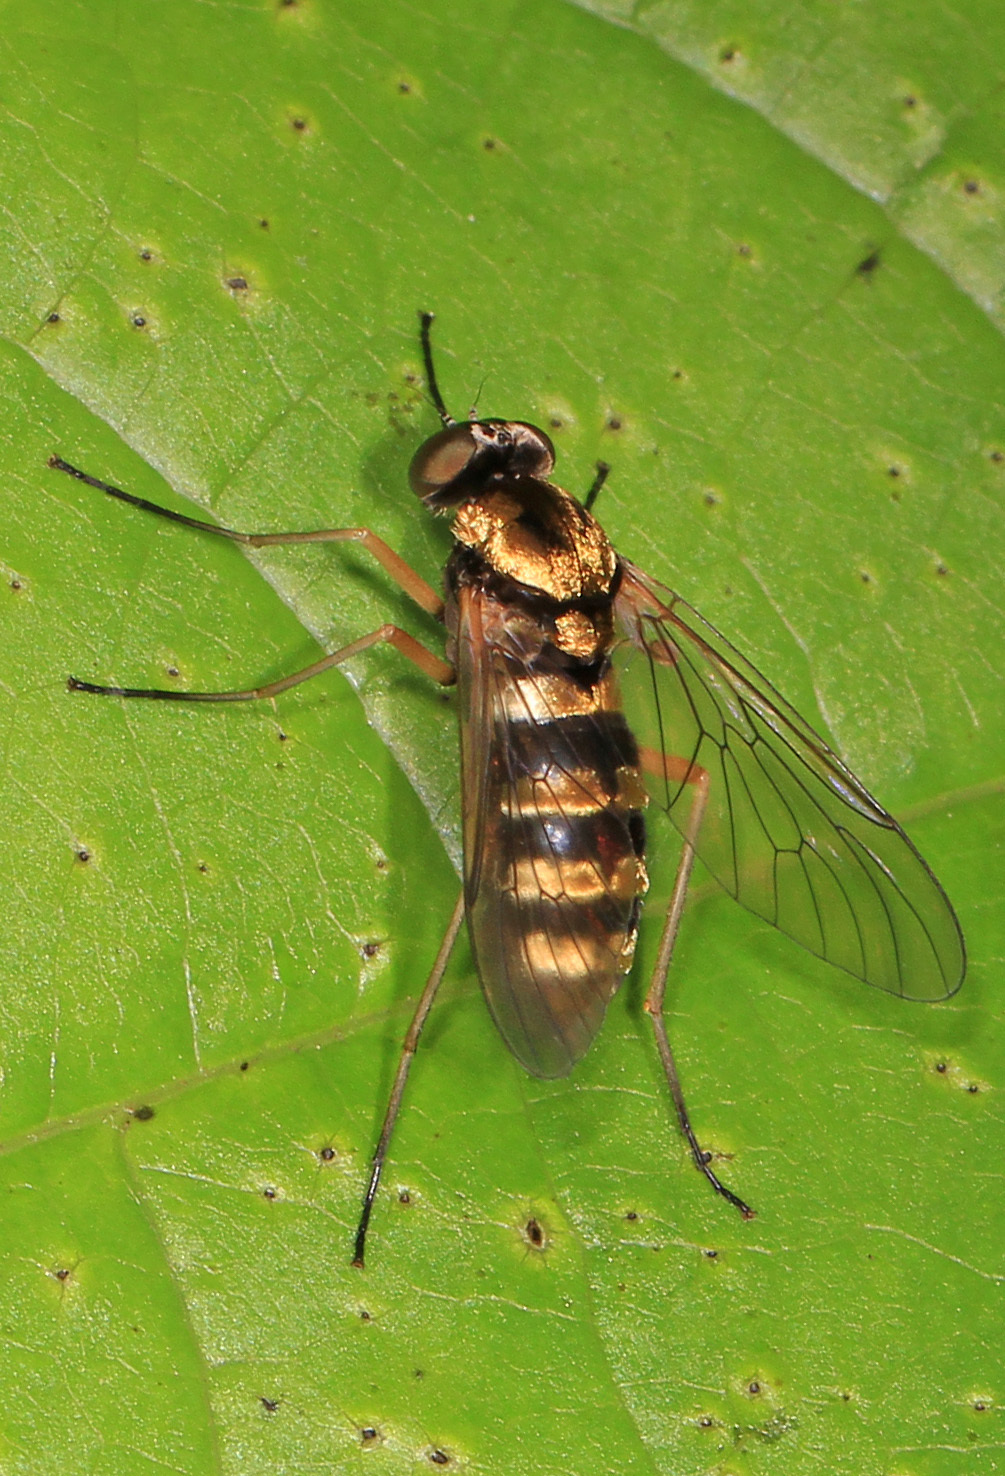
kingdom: Animalia
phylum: Arthropoda
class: Insecta
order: Diptera
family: Rhagionidae
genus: Chrysopilus
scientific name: Chrysopilus ornatus
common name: Ornate snipe fly
